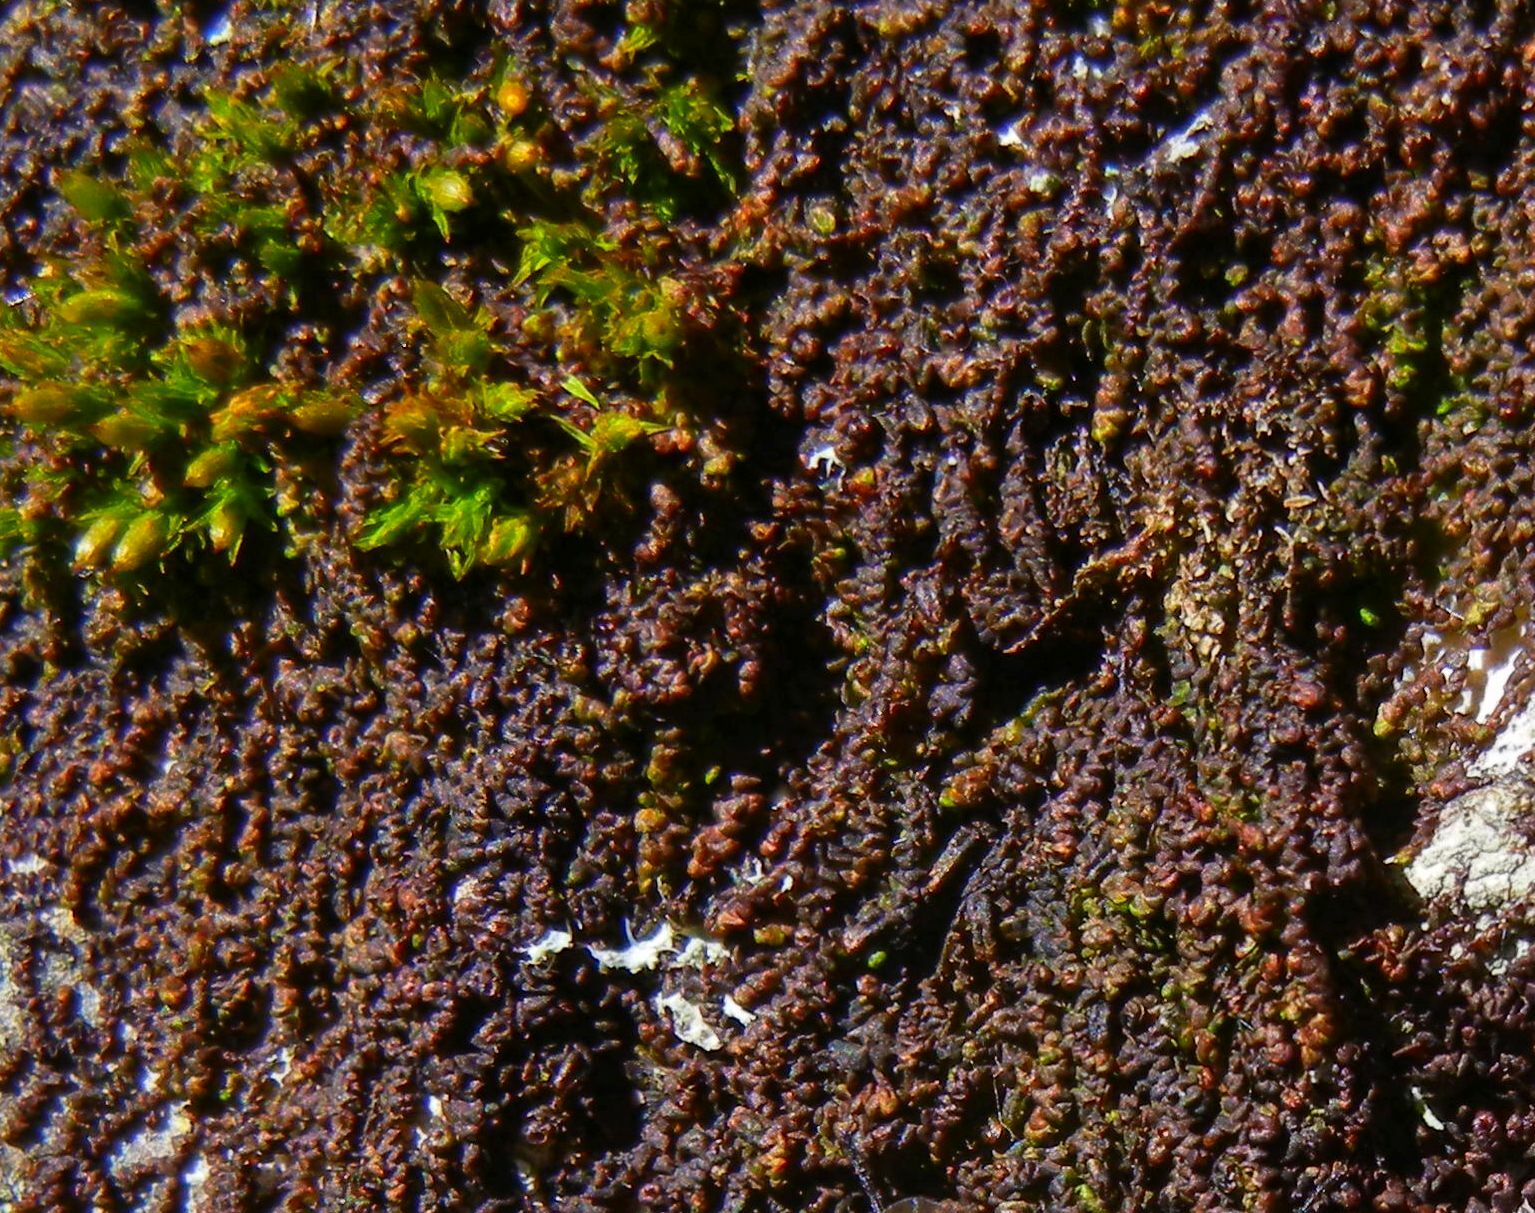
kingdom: Plantae
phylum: Marchantiophyta
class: Jungermanniopsida
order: Porellales
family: Frullaniaceae
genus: Frullania
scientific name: Frullania dilatata
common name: Dilated scalewort
